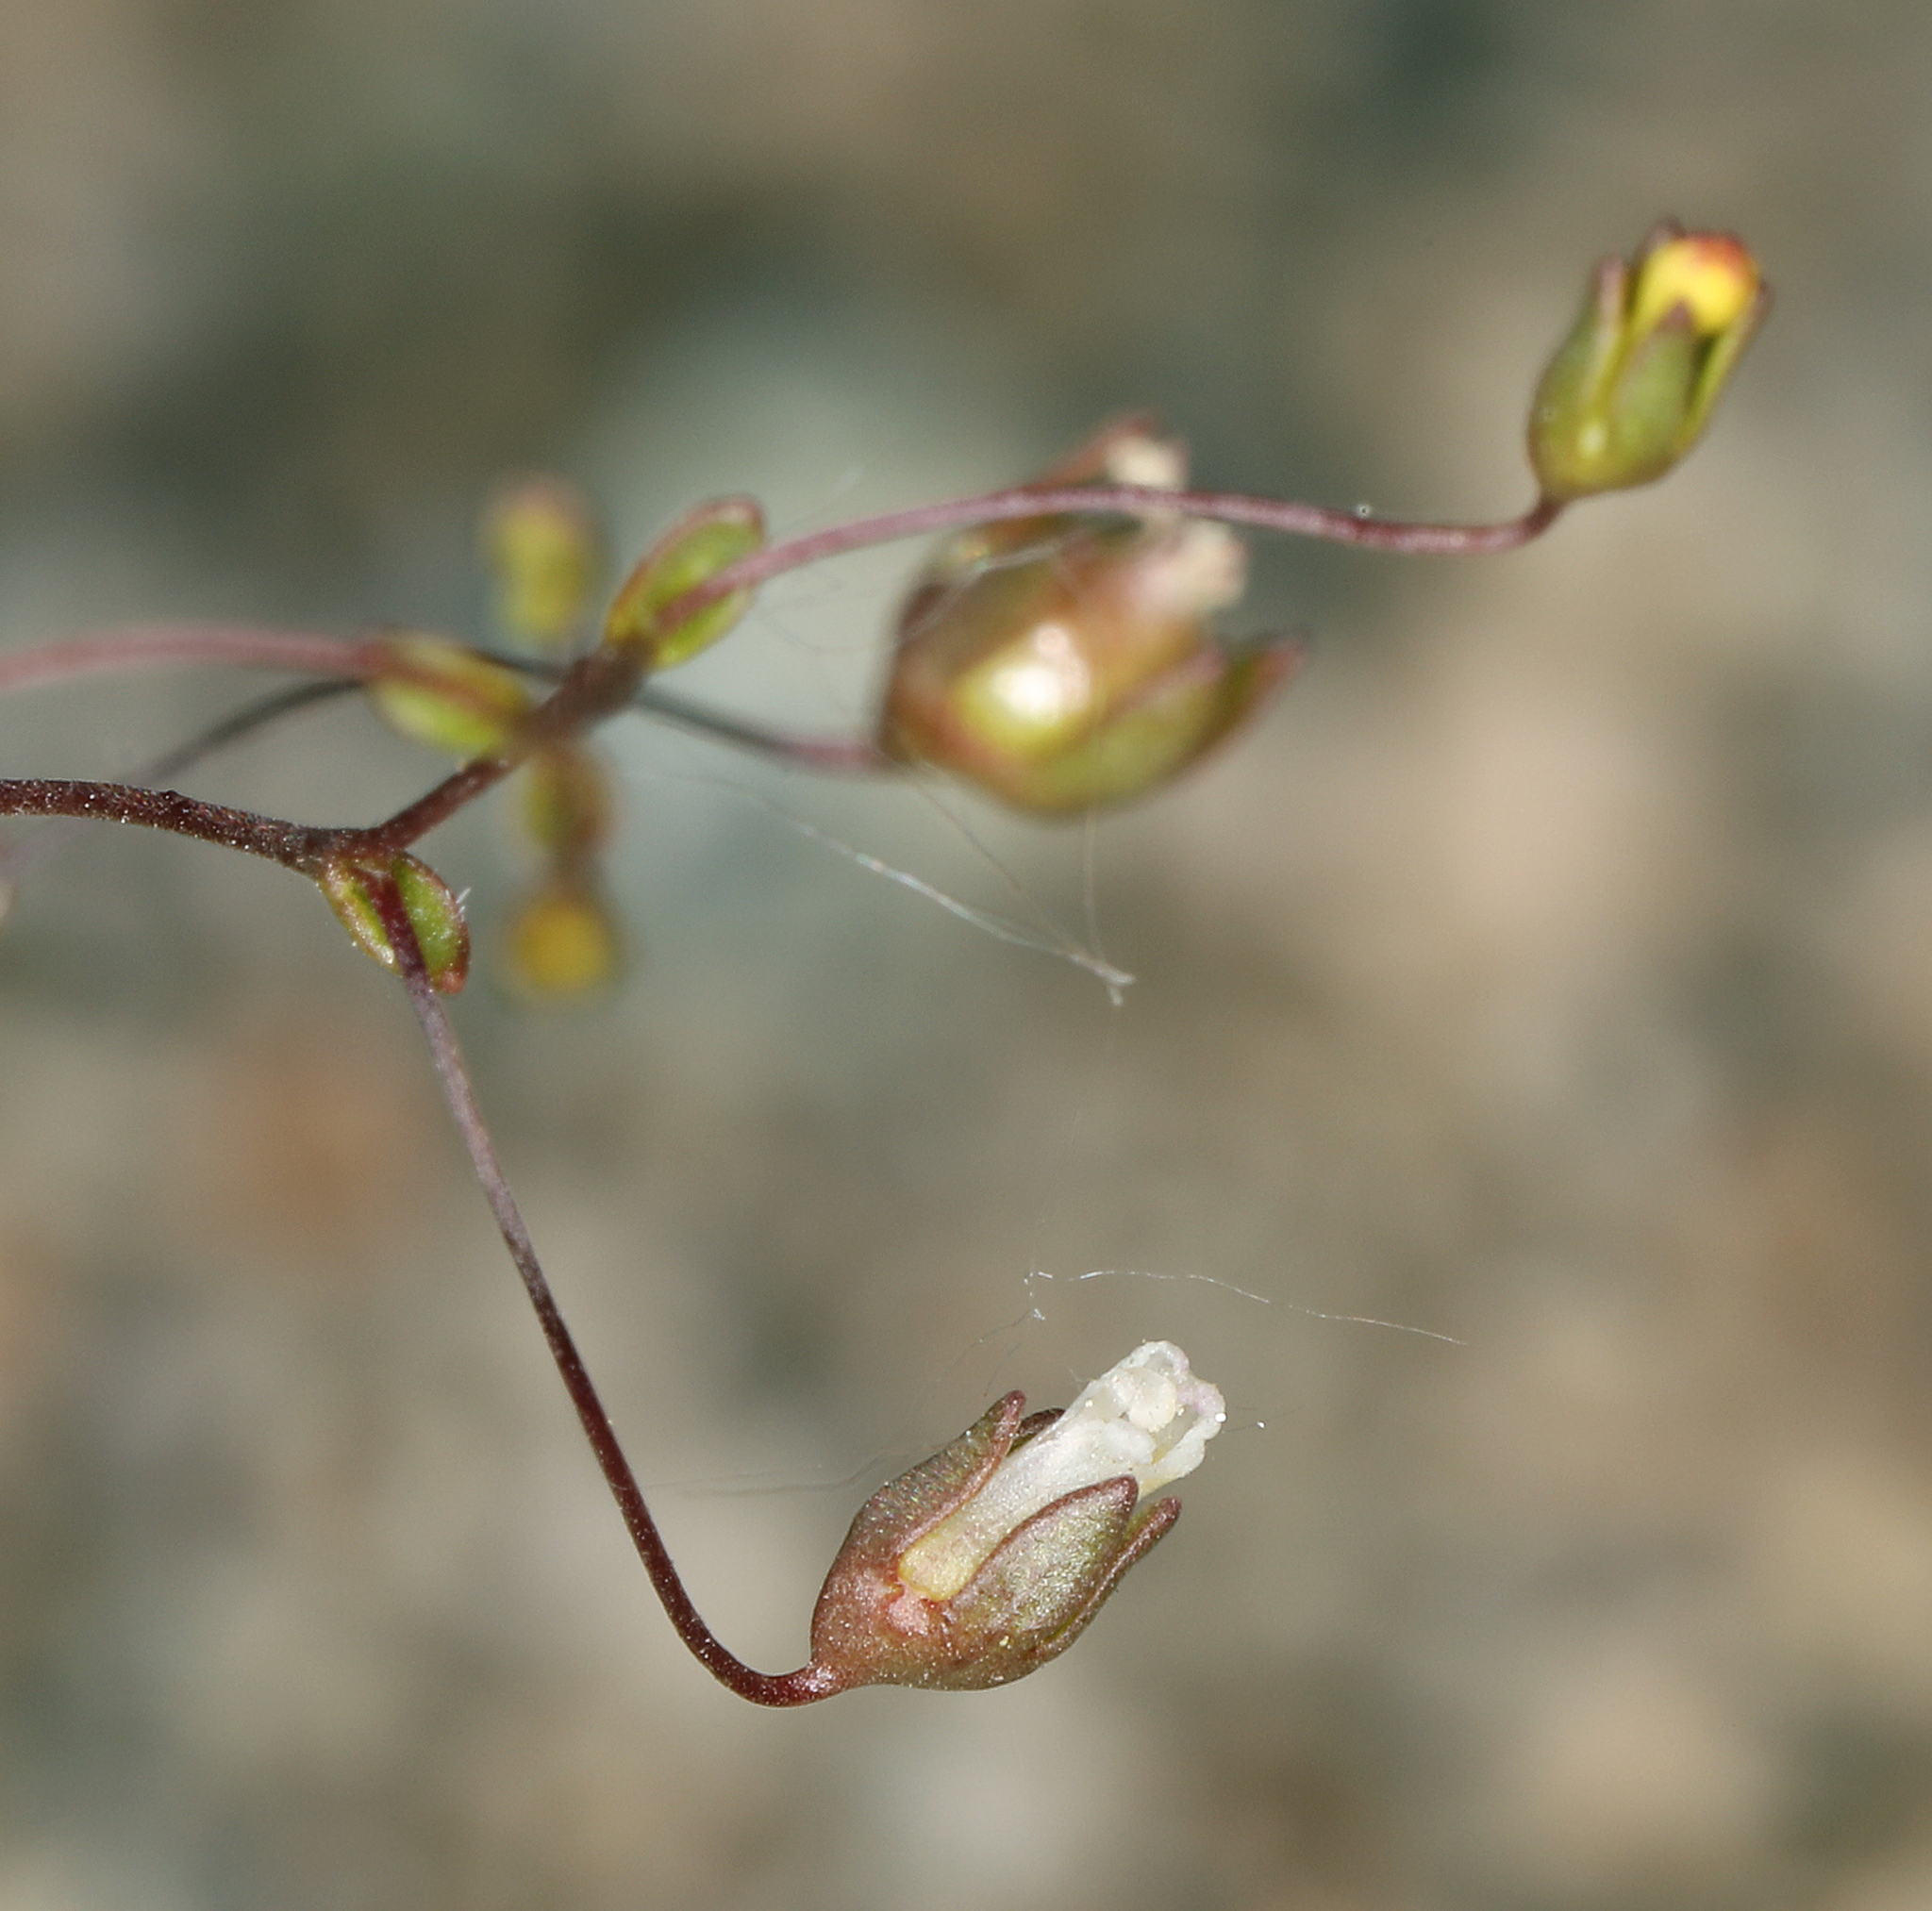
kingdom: Plantae
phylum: Tracheophyta
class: Magnoliopsida
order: Asterales
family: Campanulaceae
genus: Nemacladus
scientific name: Nemacladus sigmoideus
